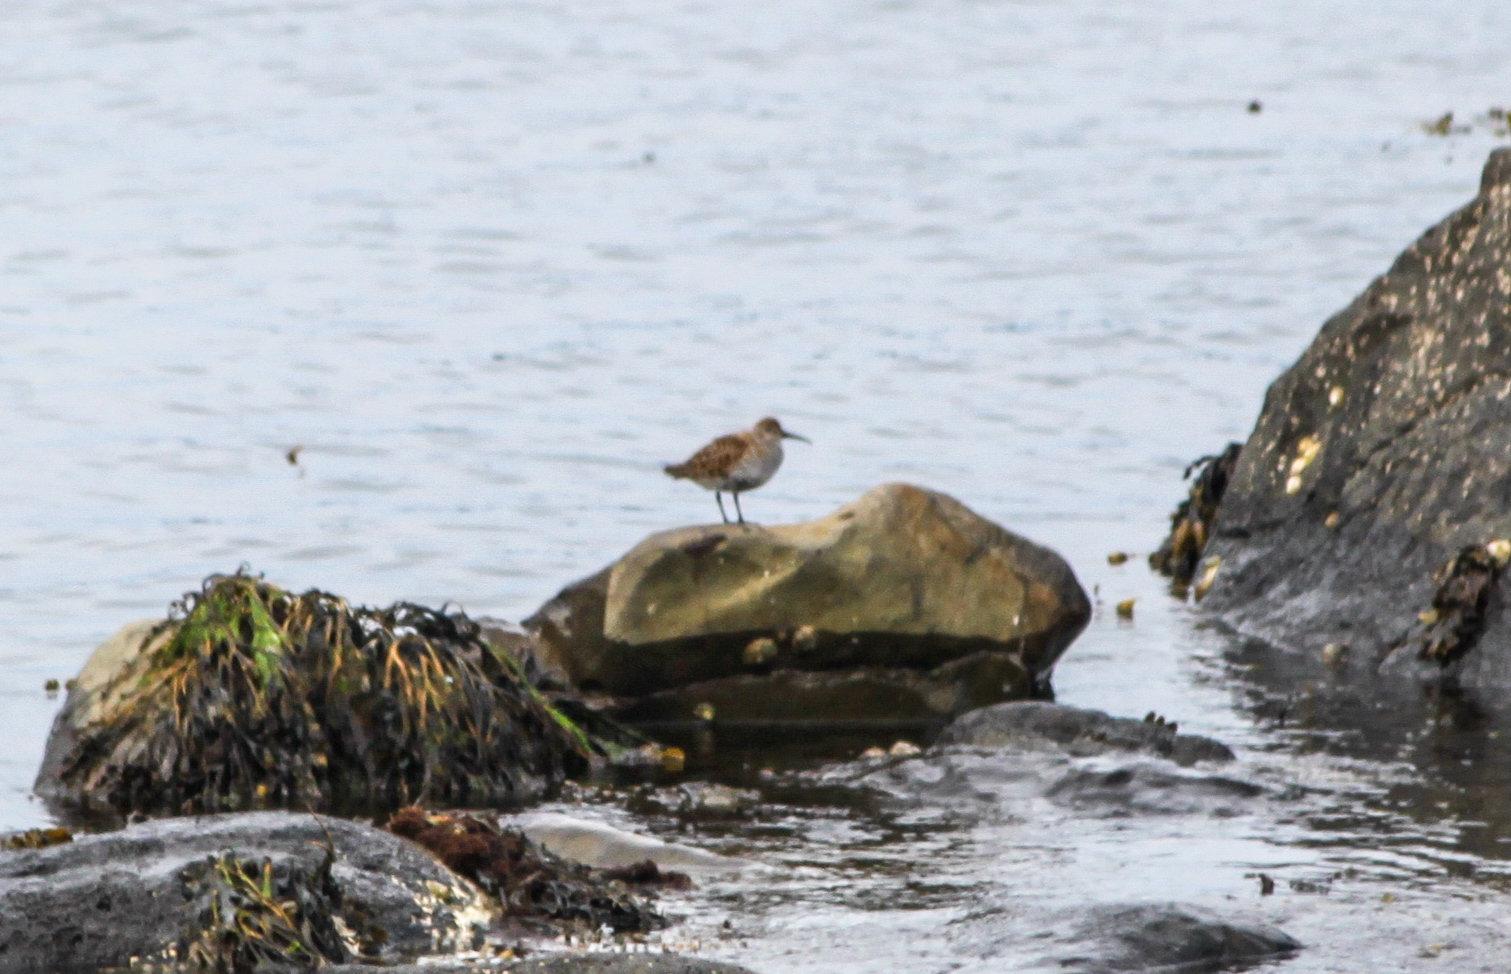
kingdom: Animalia
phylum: Chordata
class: Aves
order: Charadriiformes
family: Scolopacidae
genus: Calidris
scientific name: Calidris alpina
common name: Dunlin
